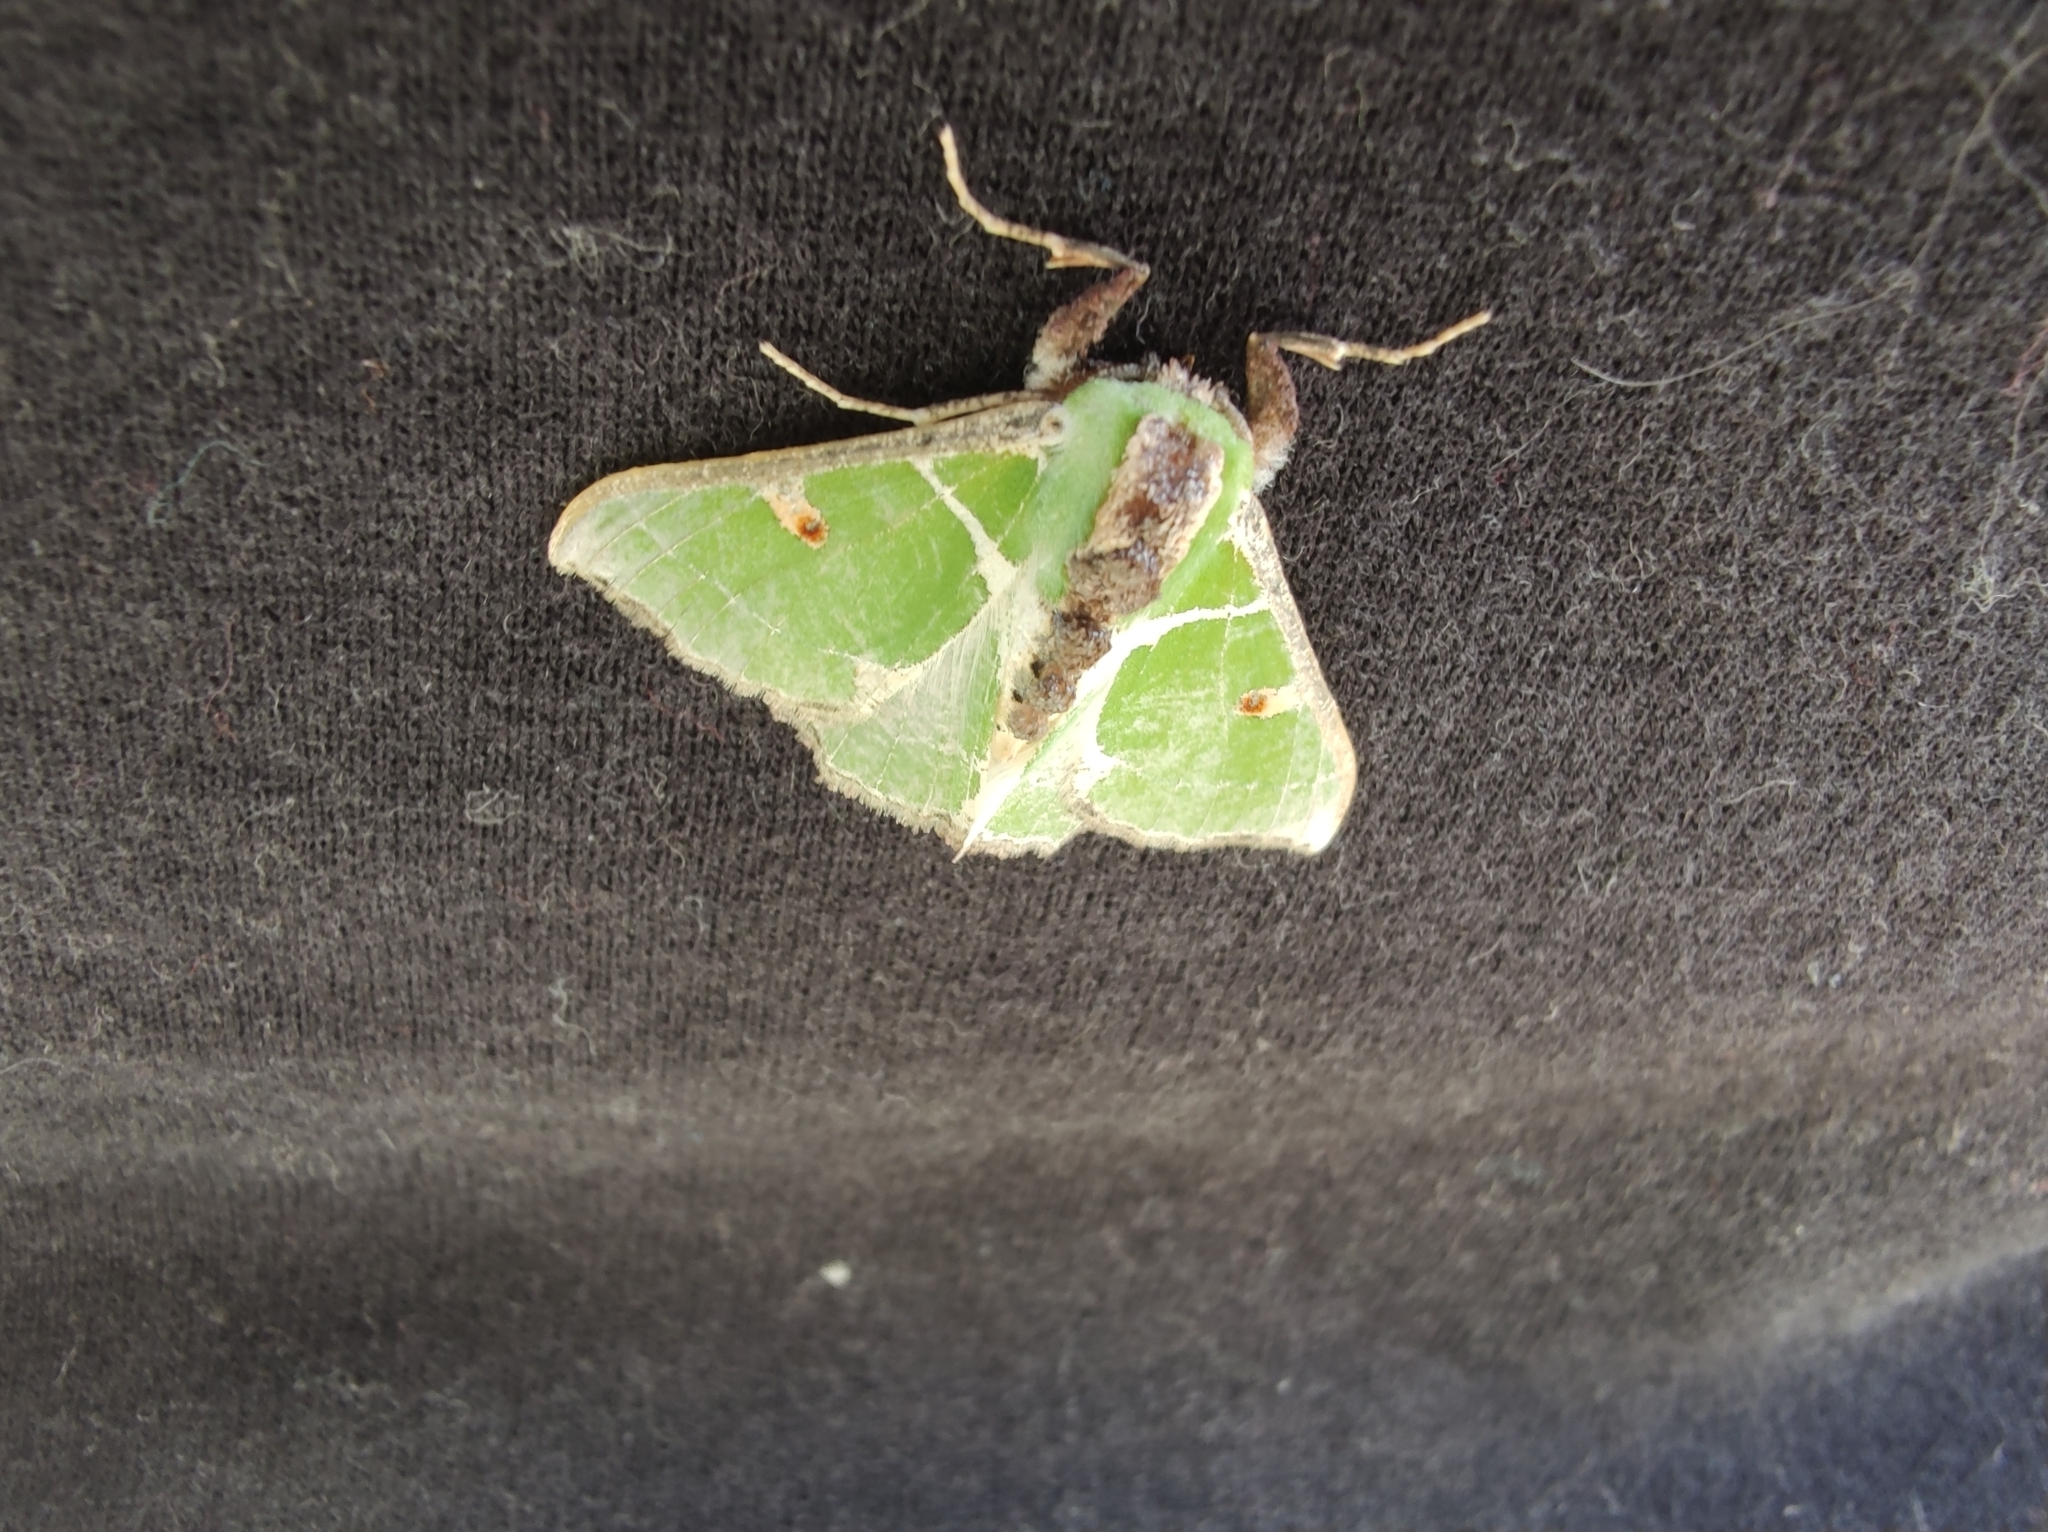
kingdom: Animalia
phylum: Arthropoda
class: Insecta
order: Lepidoptera
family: Geometridae
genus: Victoria
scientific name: Victoria albipicta
